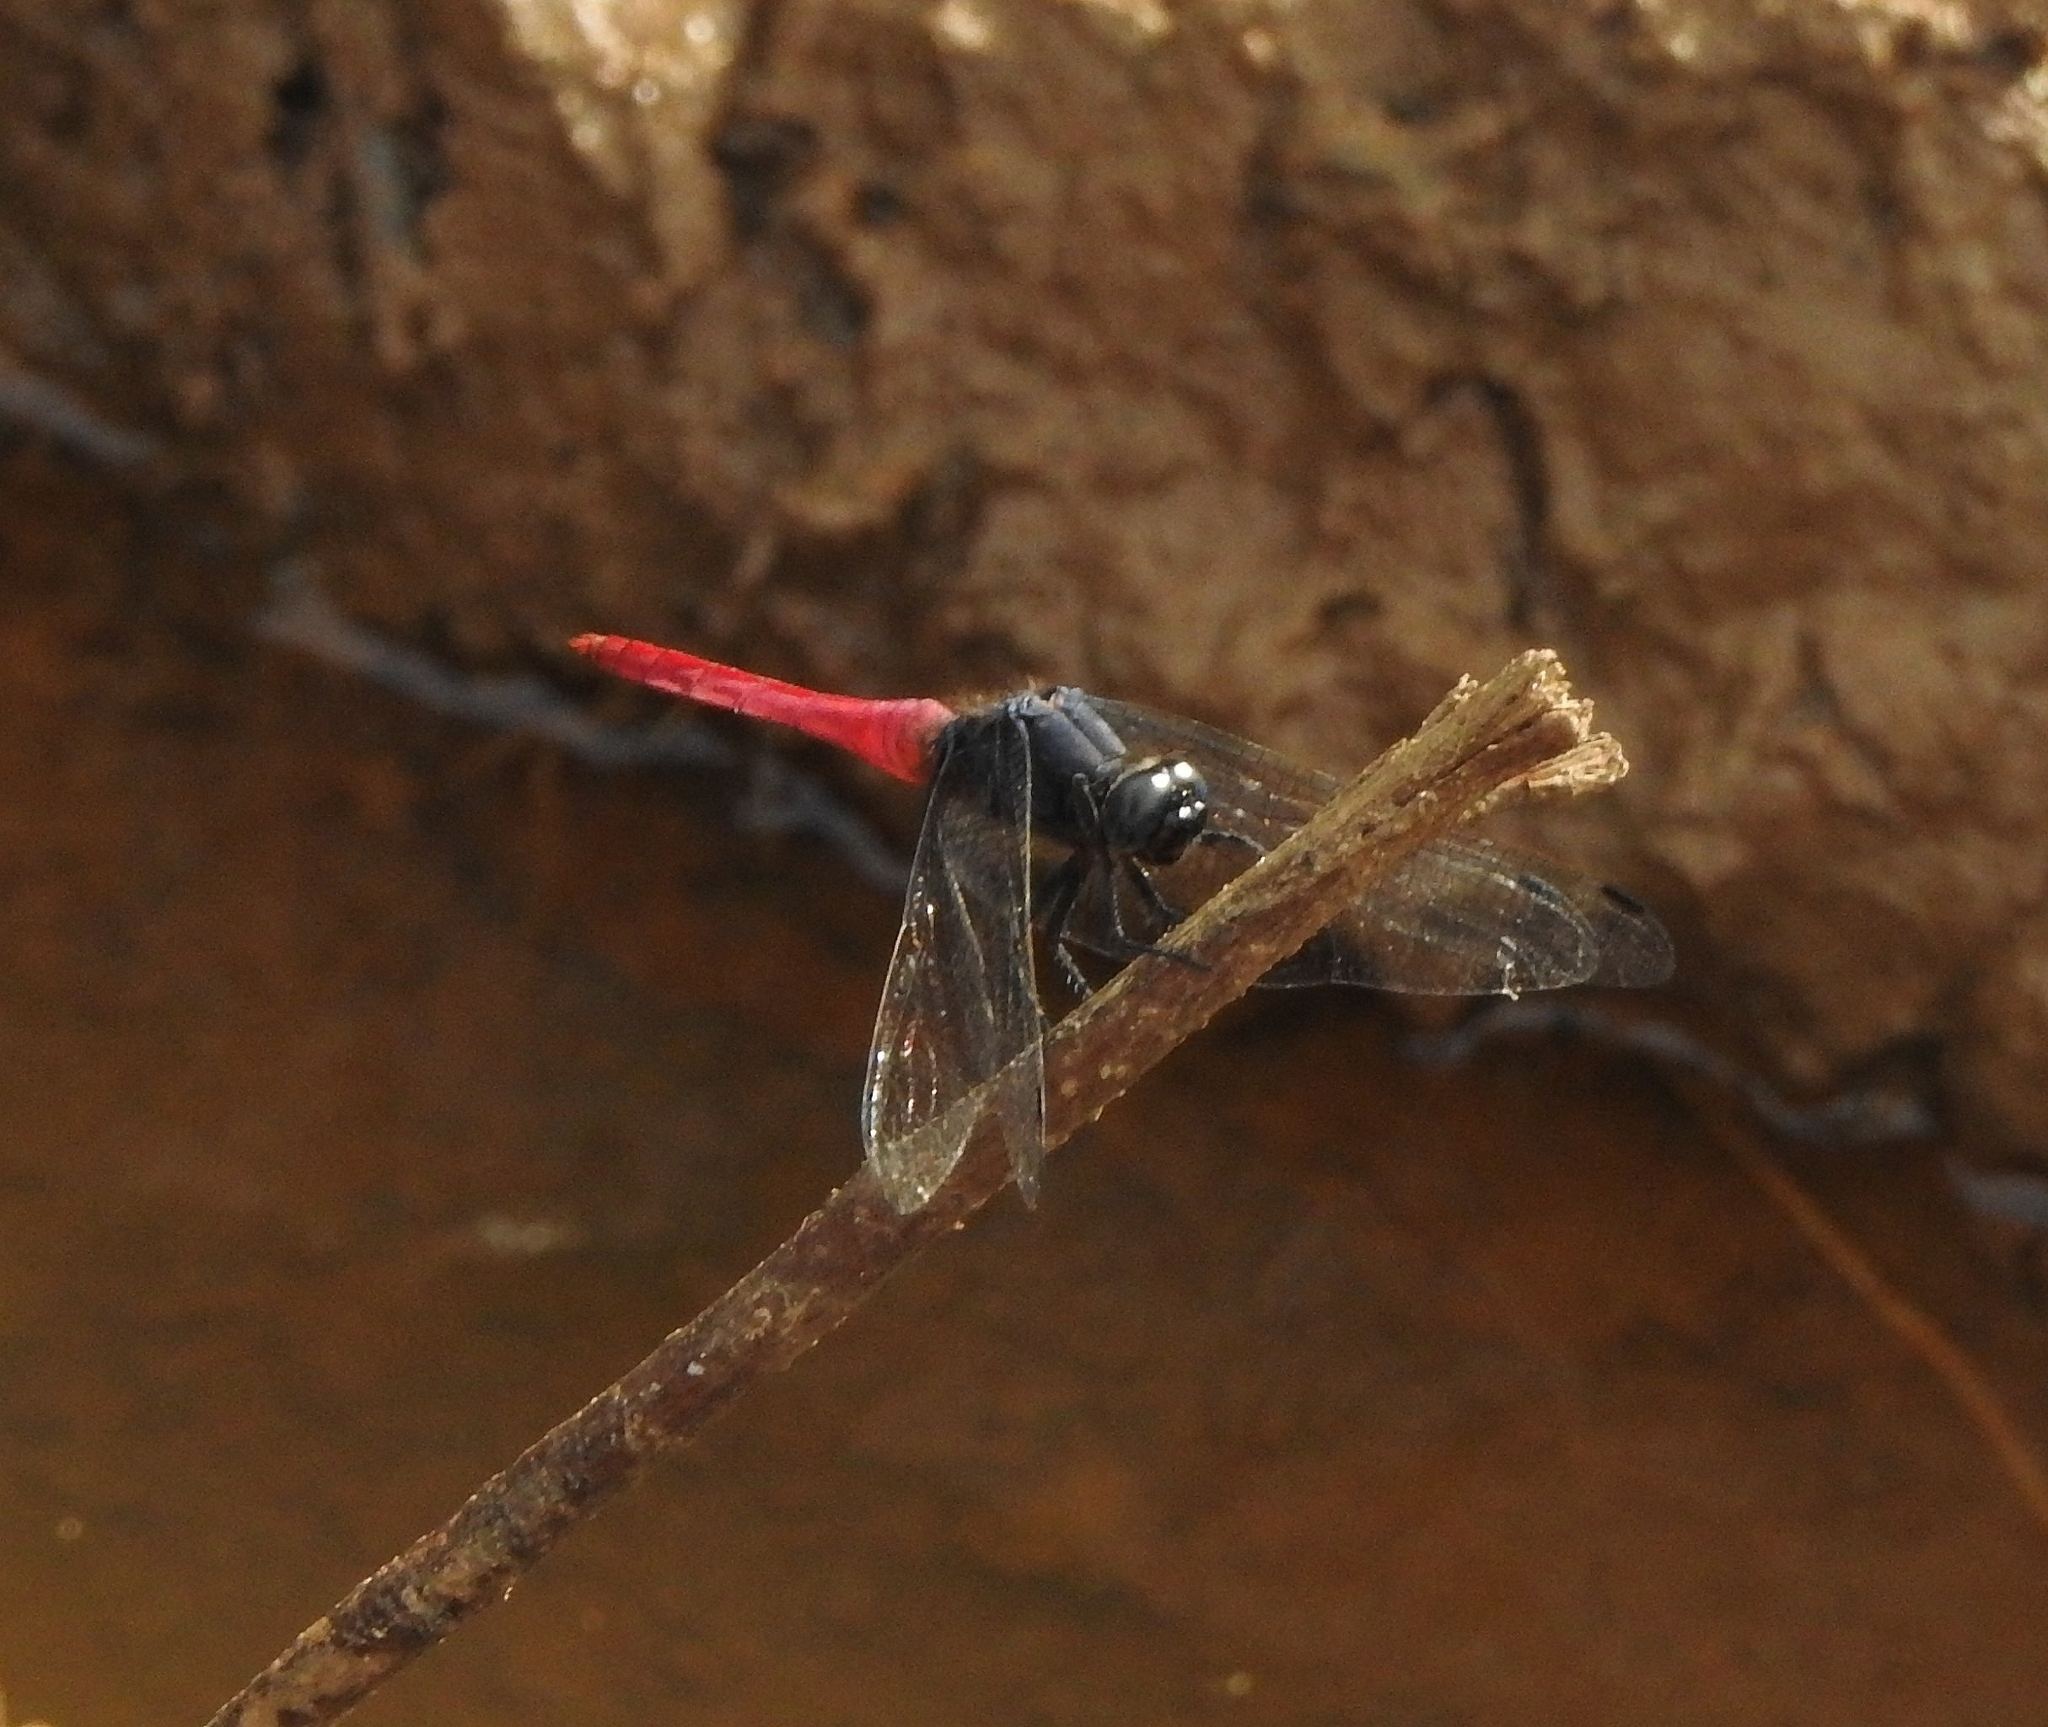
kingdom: Animalia
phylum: Arthropoda
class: Insecta
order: Odonata
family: Libellulidae
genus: Orthetrum
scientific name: Orthetrum pruinosum
